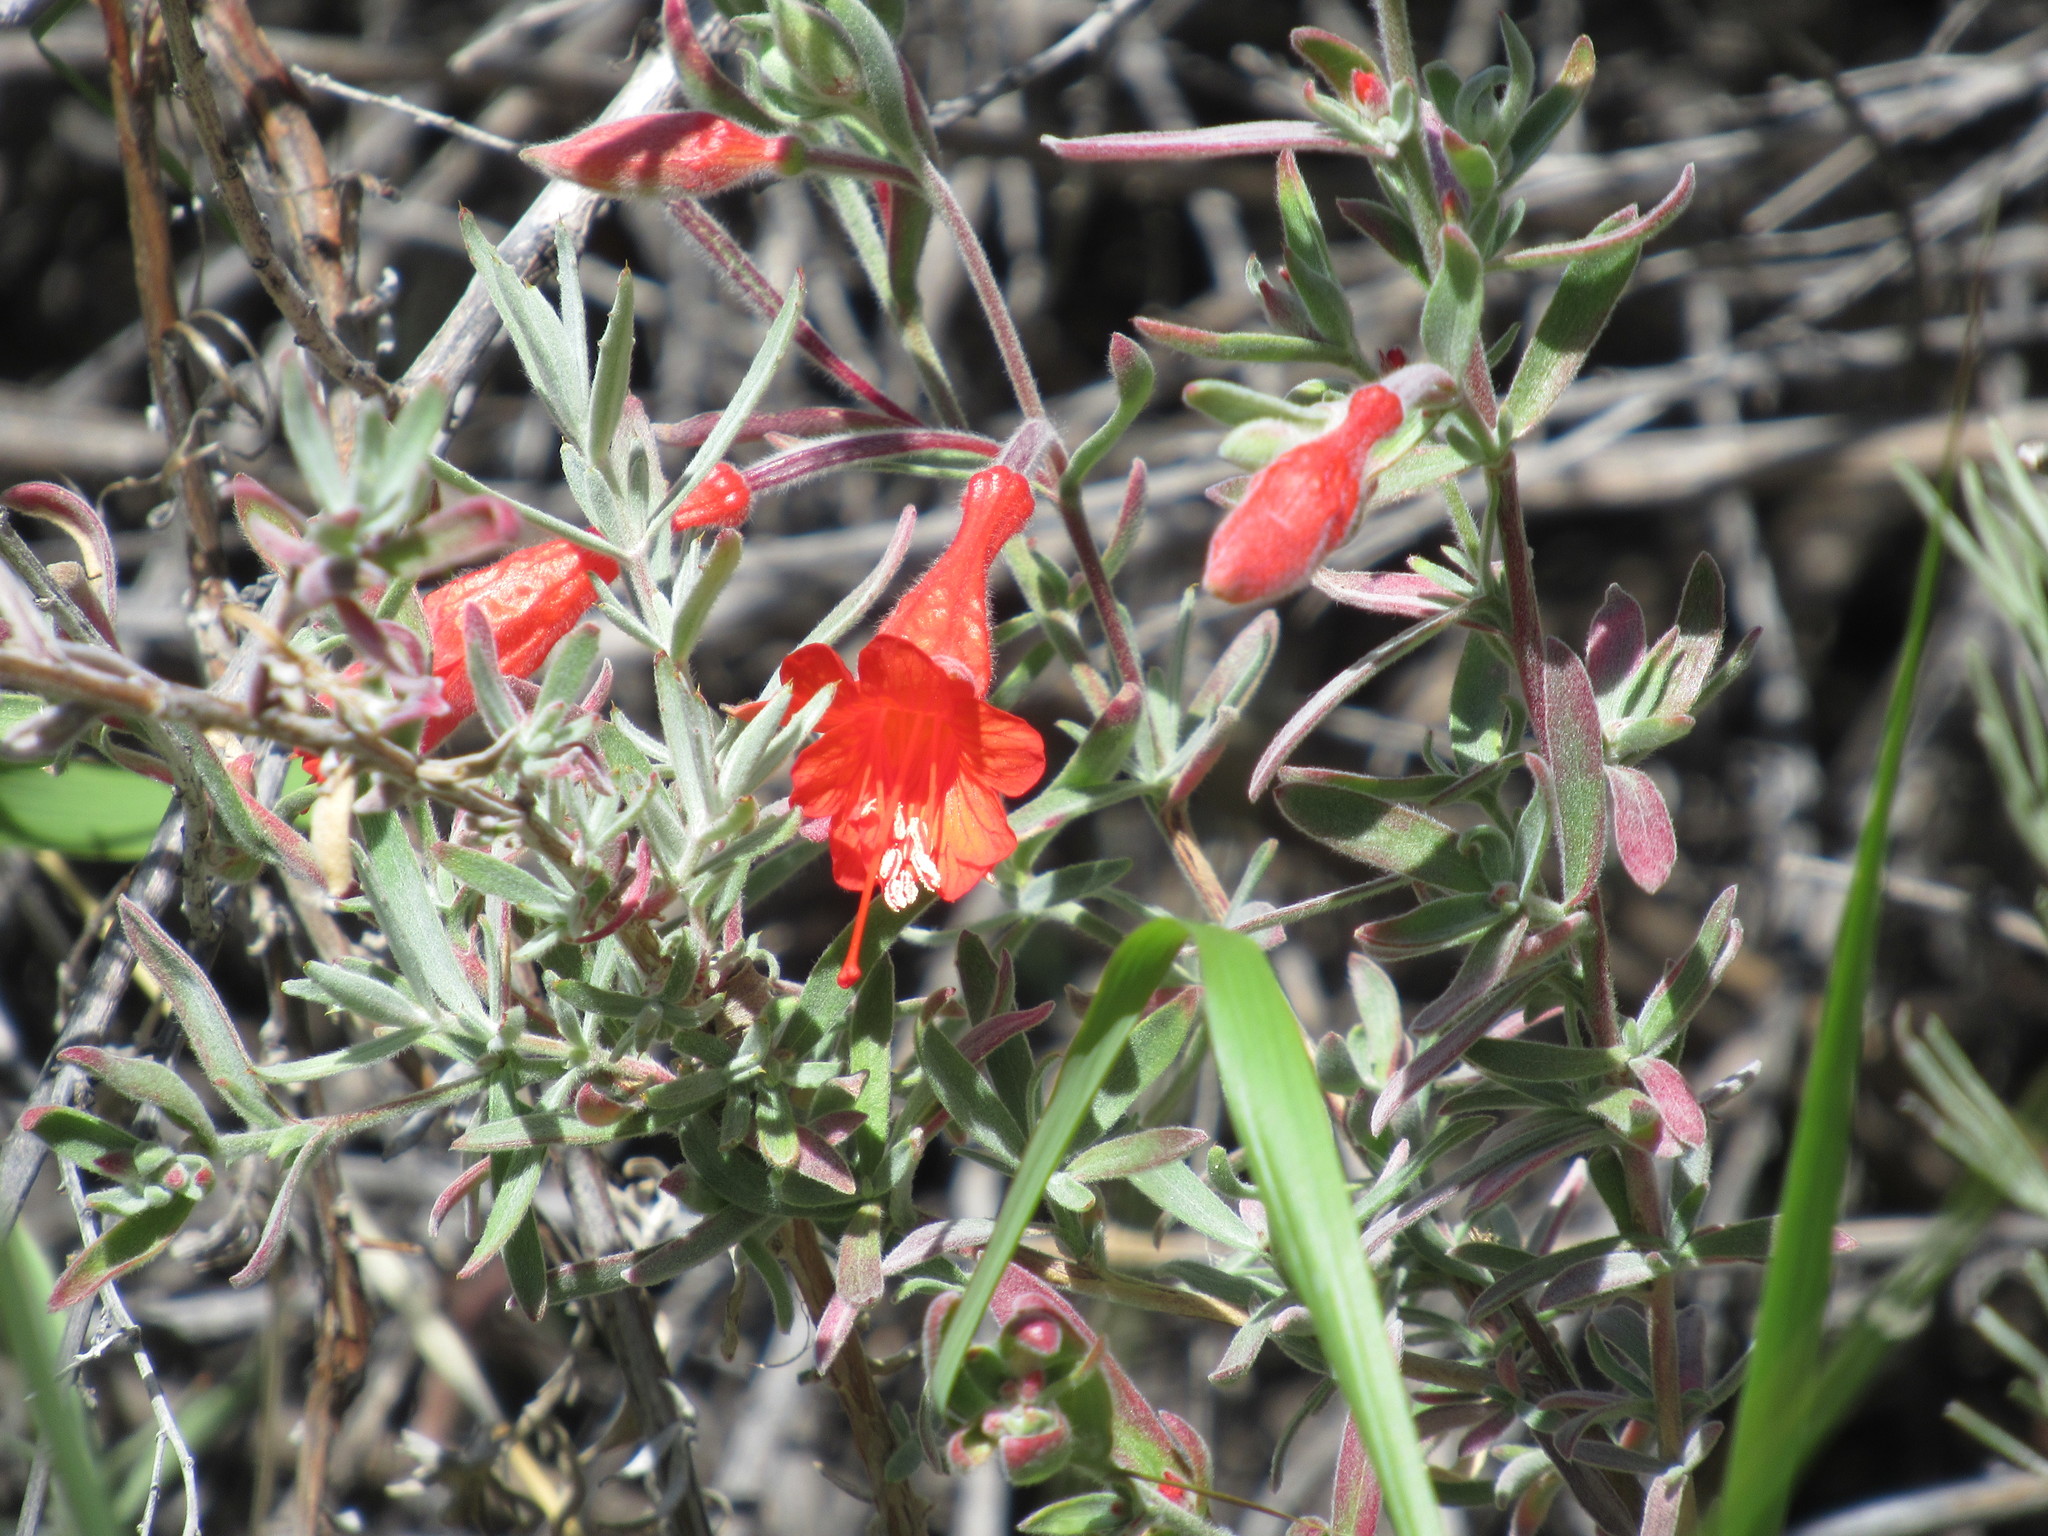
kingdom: Plantae
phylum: Tracheophyta
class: Magnoliopsida
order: Myrtales
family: Onagraceae
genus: Epilobium
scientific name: Epilobium canum
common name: California-fuchsia
